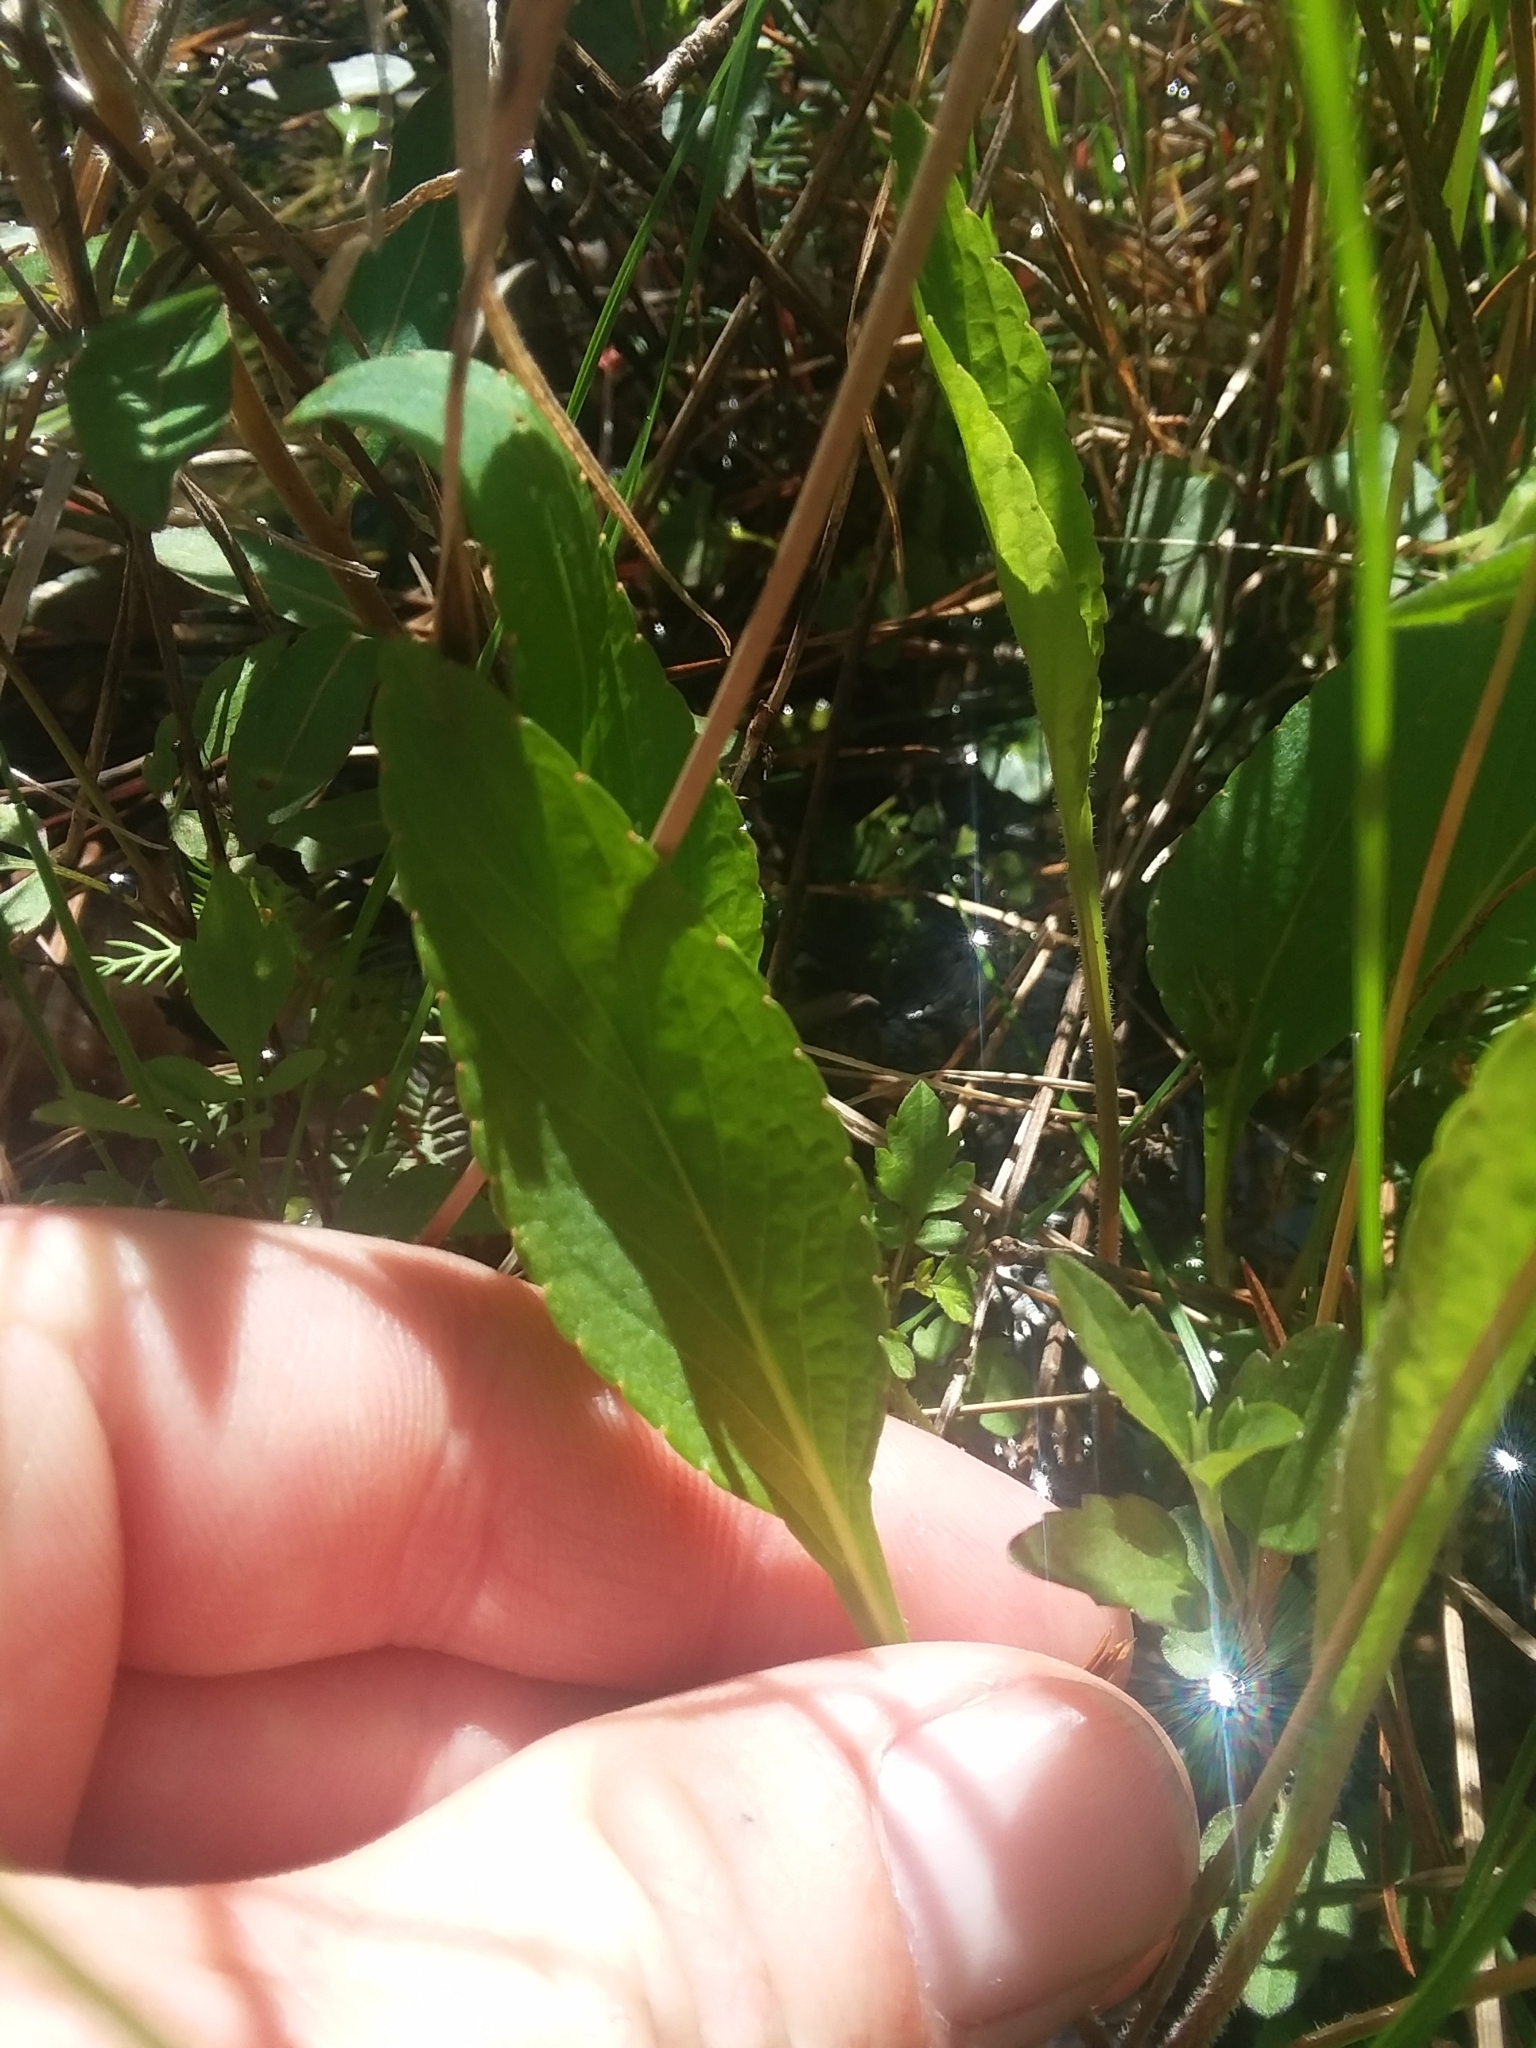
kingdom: Plantae
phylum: Tracheophyta
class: Magnoliopsida
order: Malpighiales
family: Violaceae
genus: Viola
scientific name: Viola lanceolata
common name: Bog white violet
